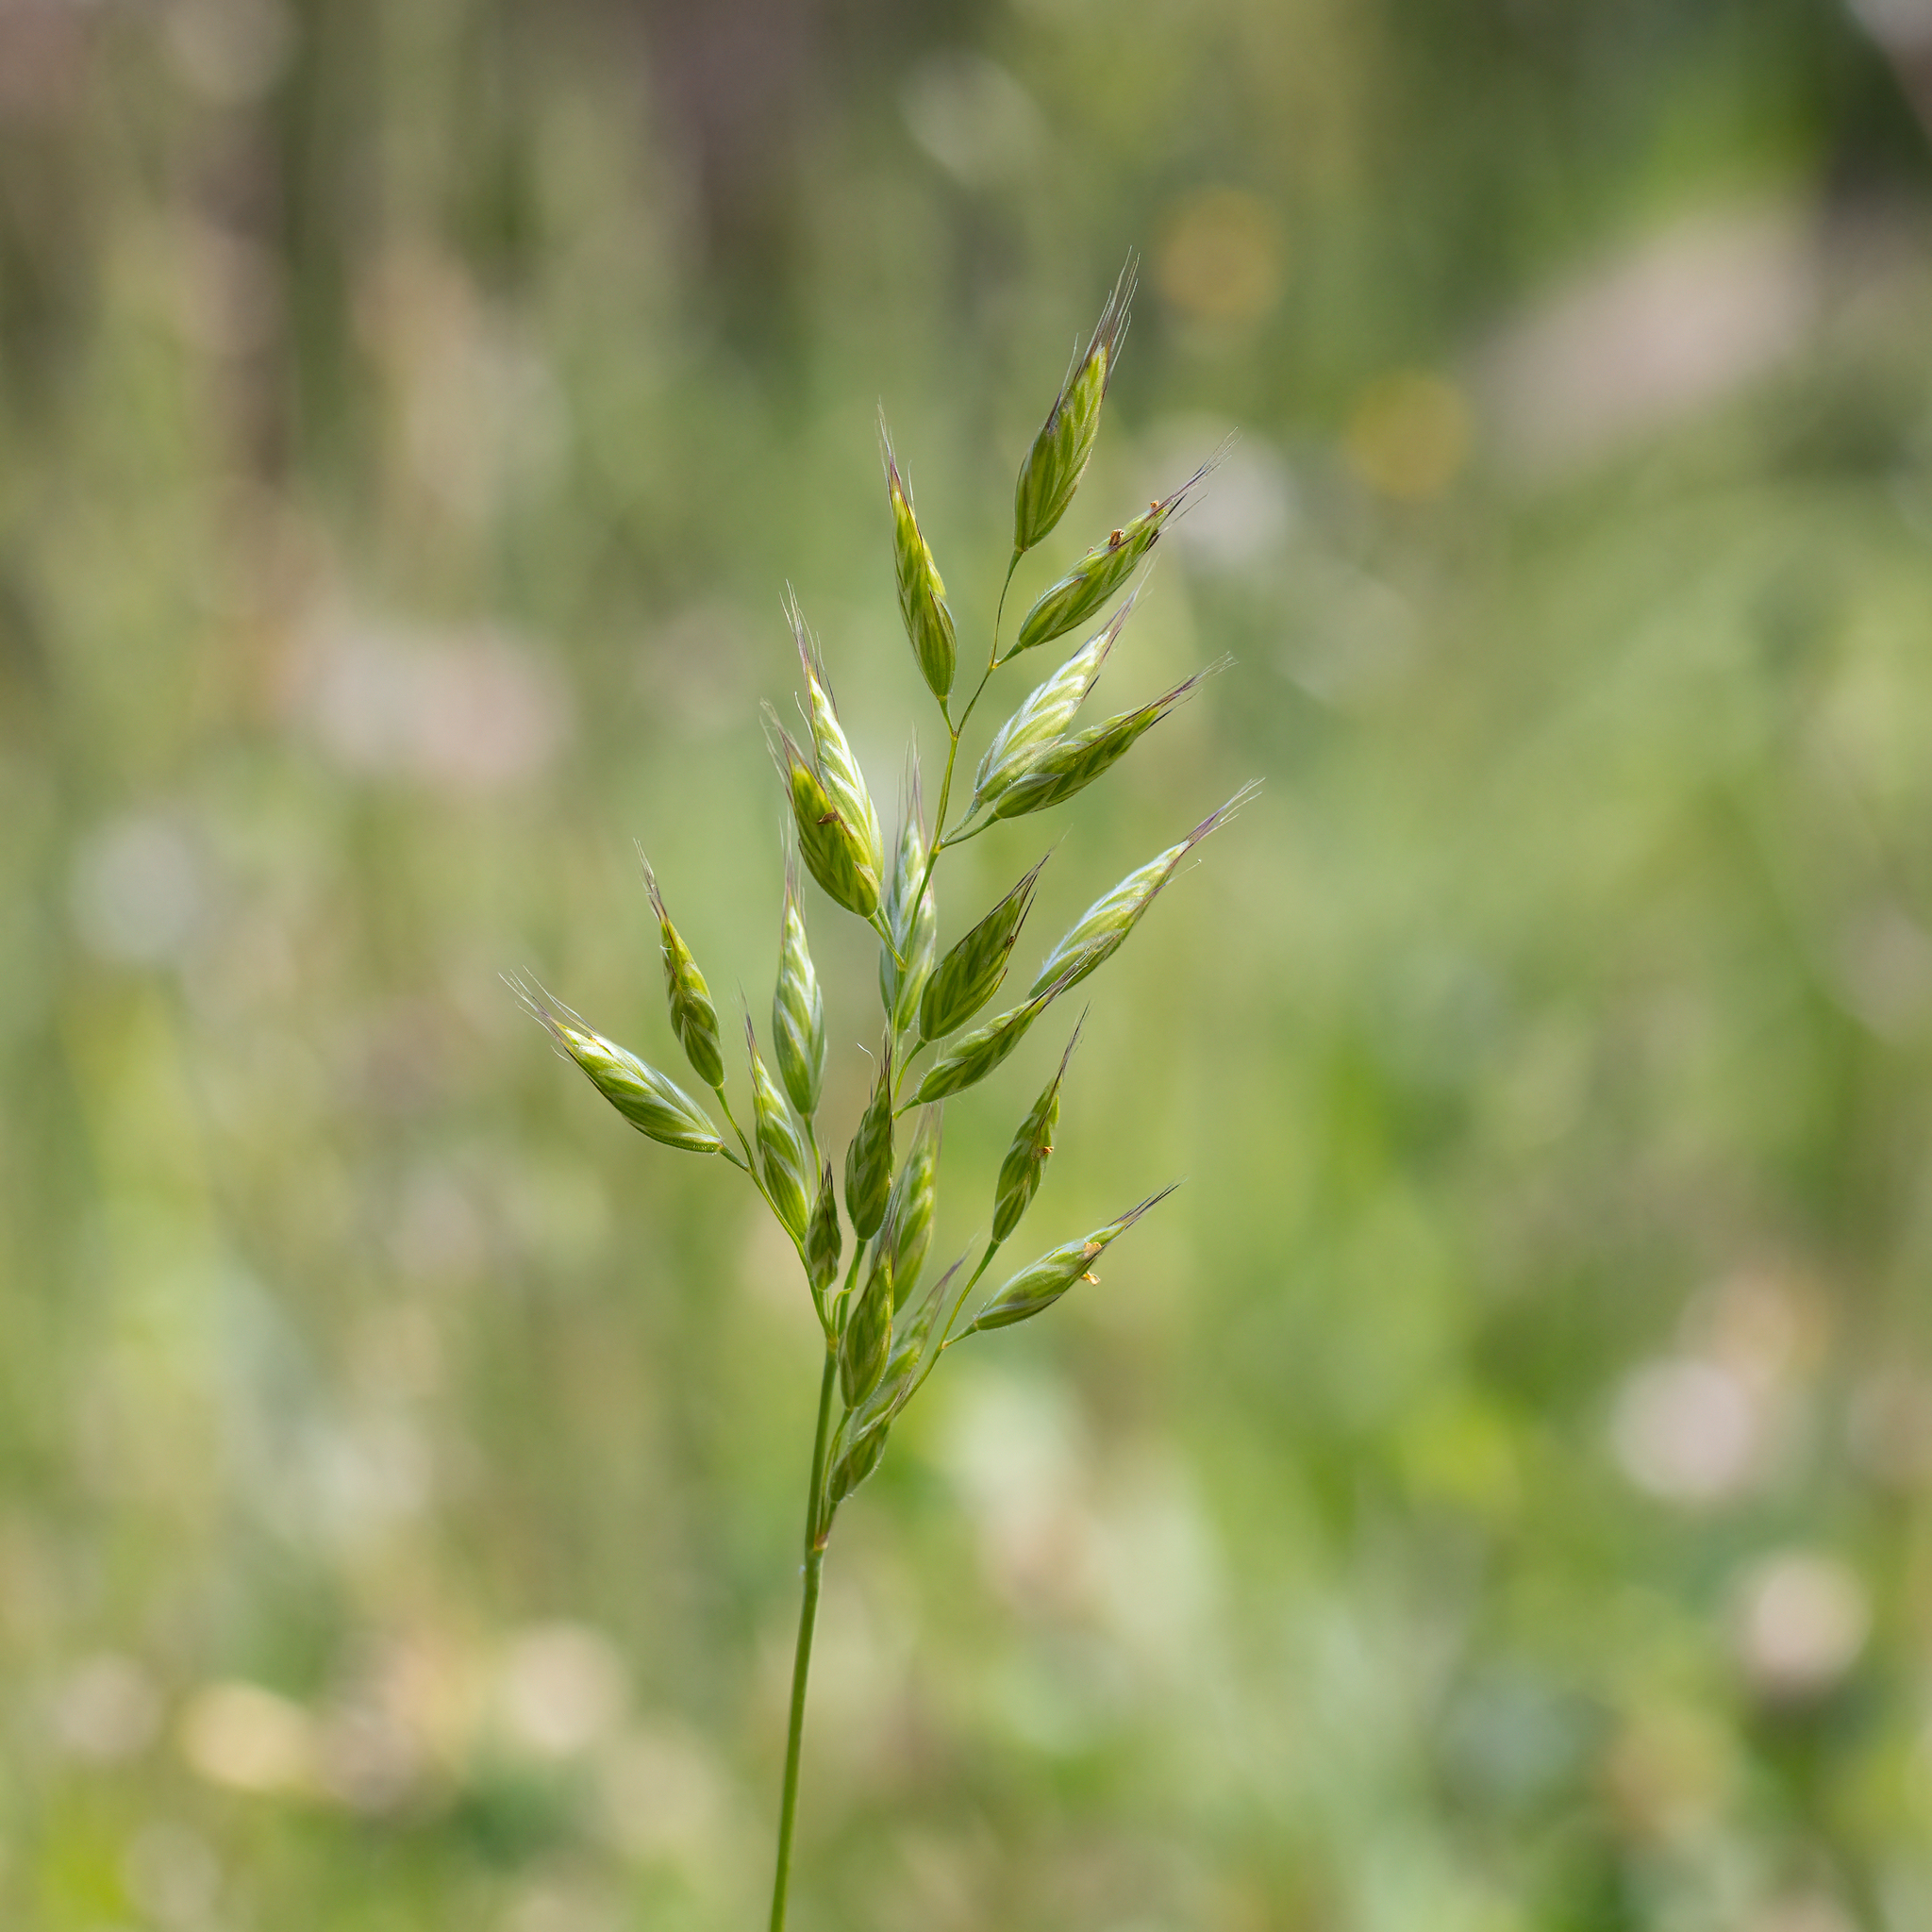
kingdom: Plantae
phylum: Tracheophyta
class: Liliopsida
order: Poales
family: Poaceae
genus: Bromus
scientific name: Bromus hordeaceus
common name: Soft brome
